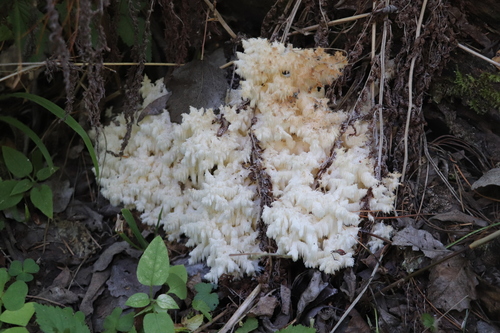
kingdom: Fungi
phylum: Basidiomycota
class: Agaricomycetes
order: Russulales
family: Hericiaceae
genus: Hericium
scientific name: Hericium coralloides
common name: Coral tooth
